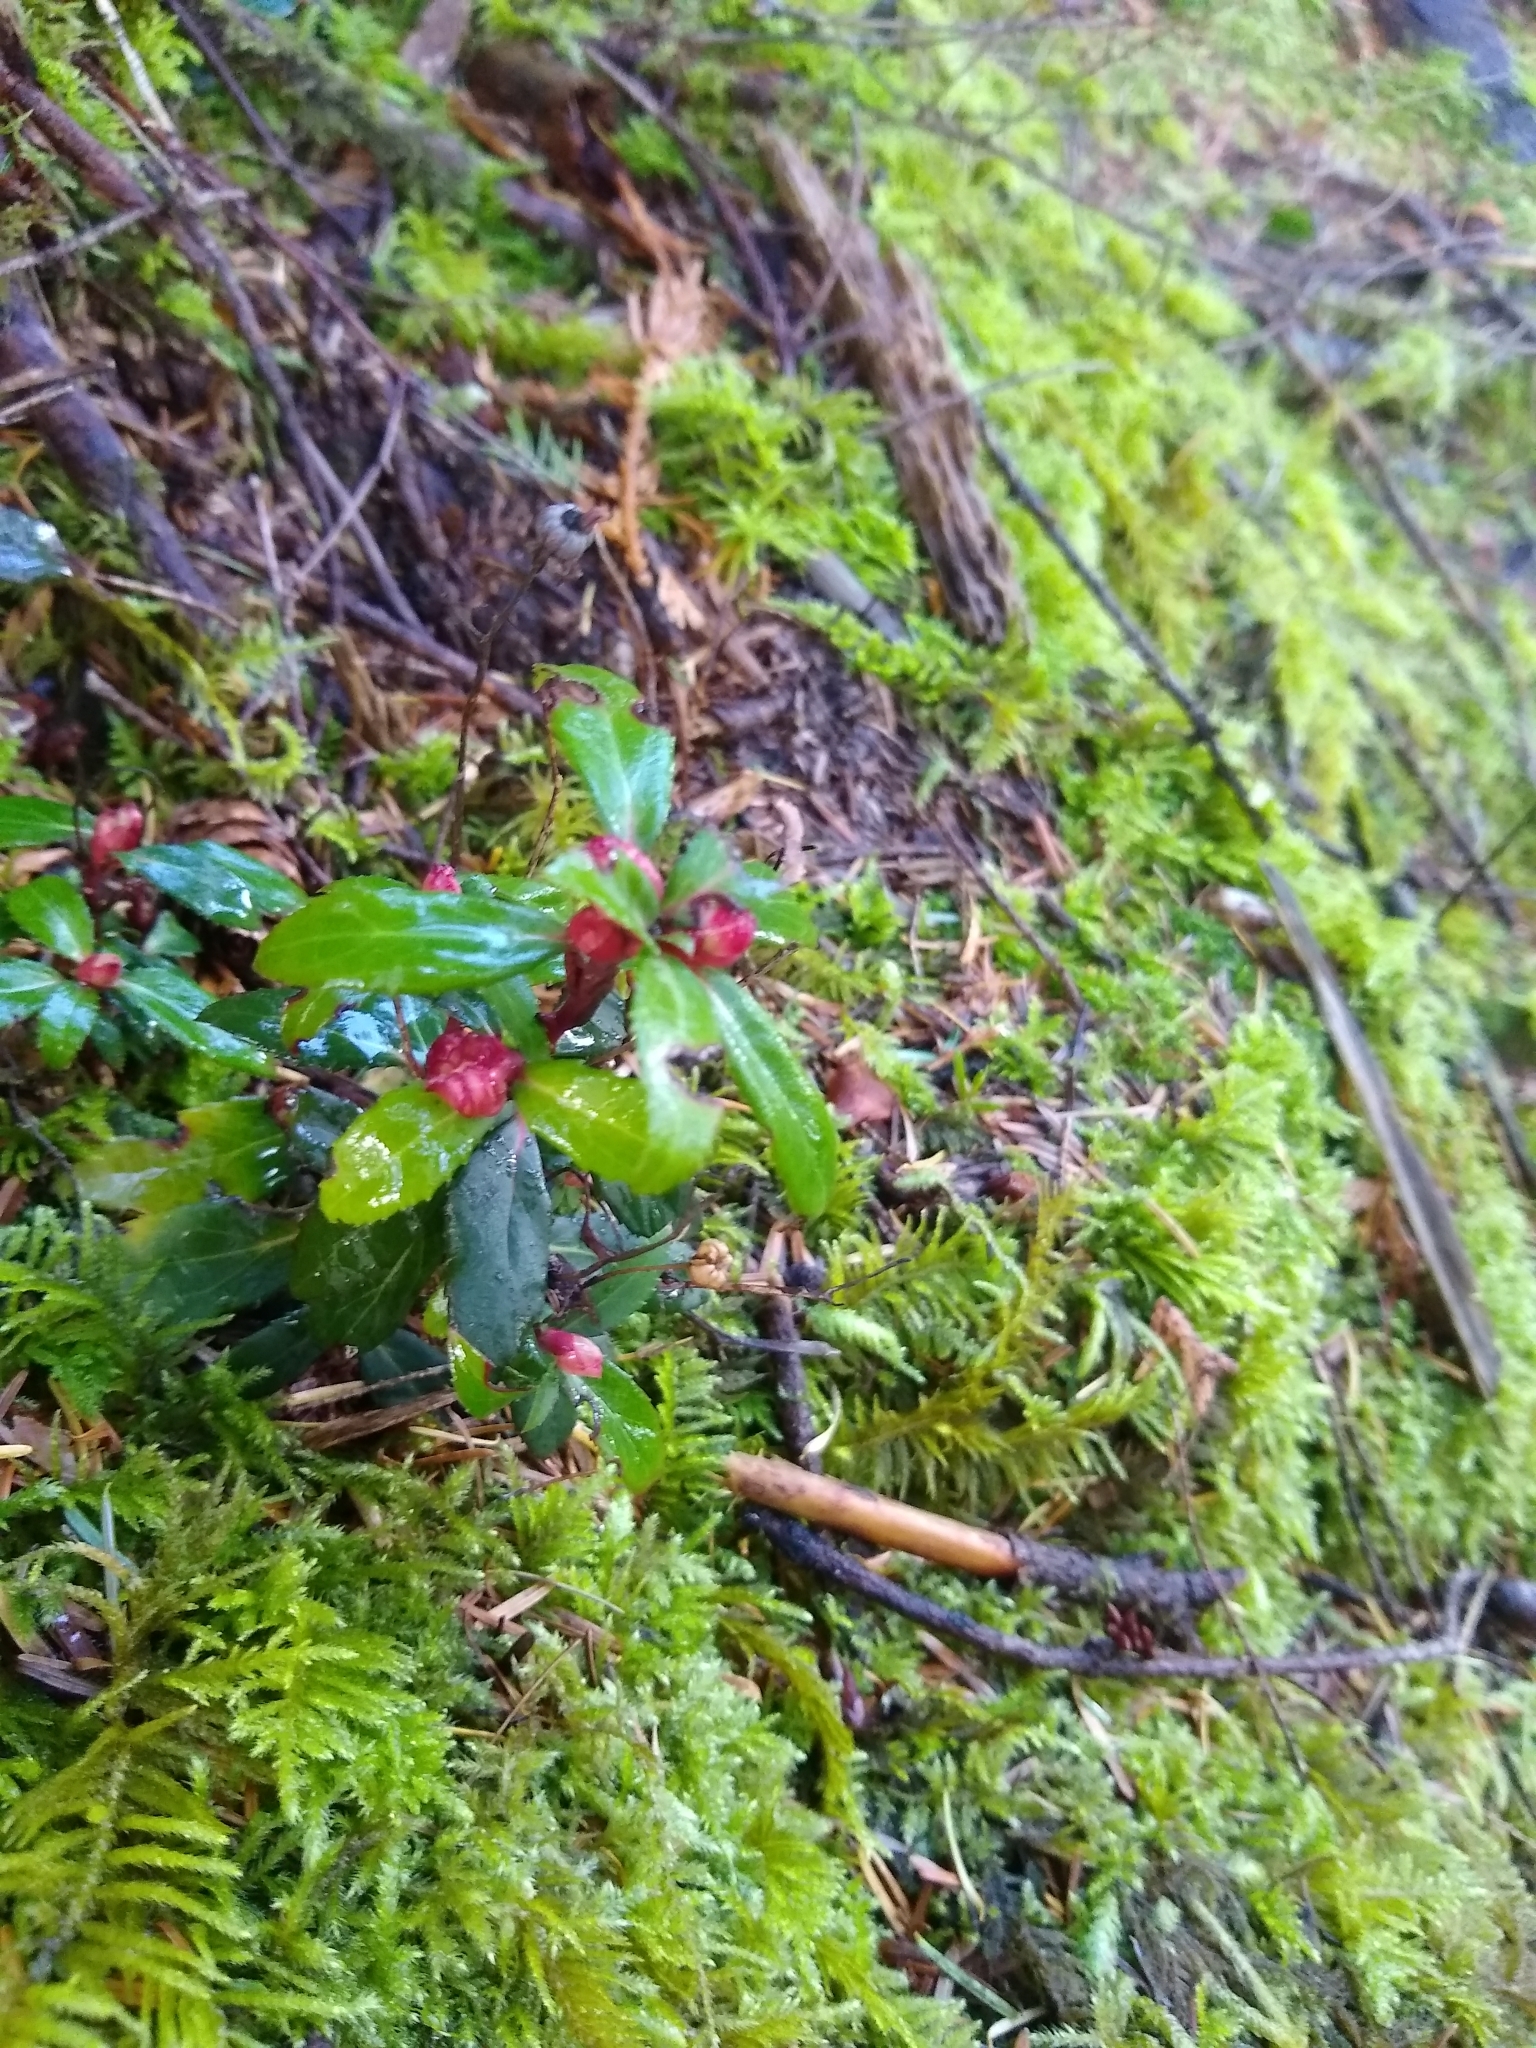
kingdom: Plantae
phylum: Tracheophyta
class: Magnoliopsida
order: Ericales
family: Ericaceae
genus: Chimaphila
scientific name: Chimaphila menziesii
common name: Menzies' pipsissewa
